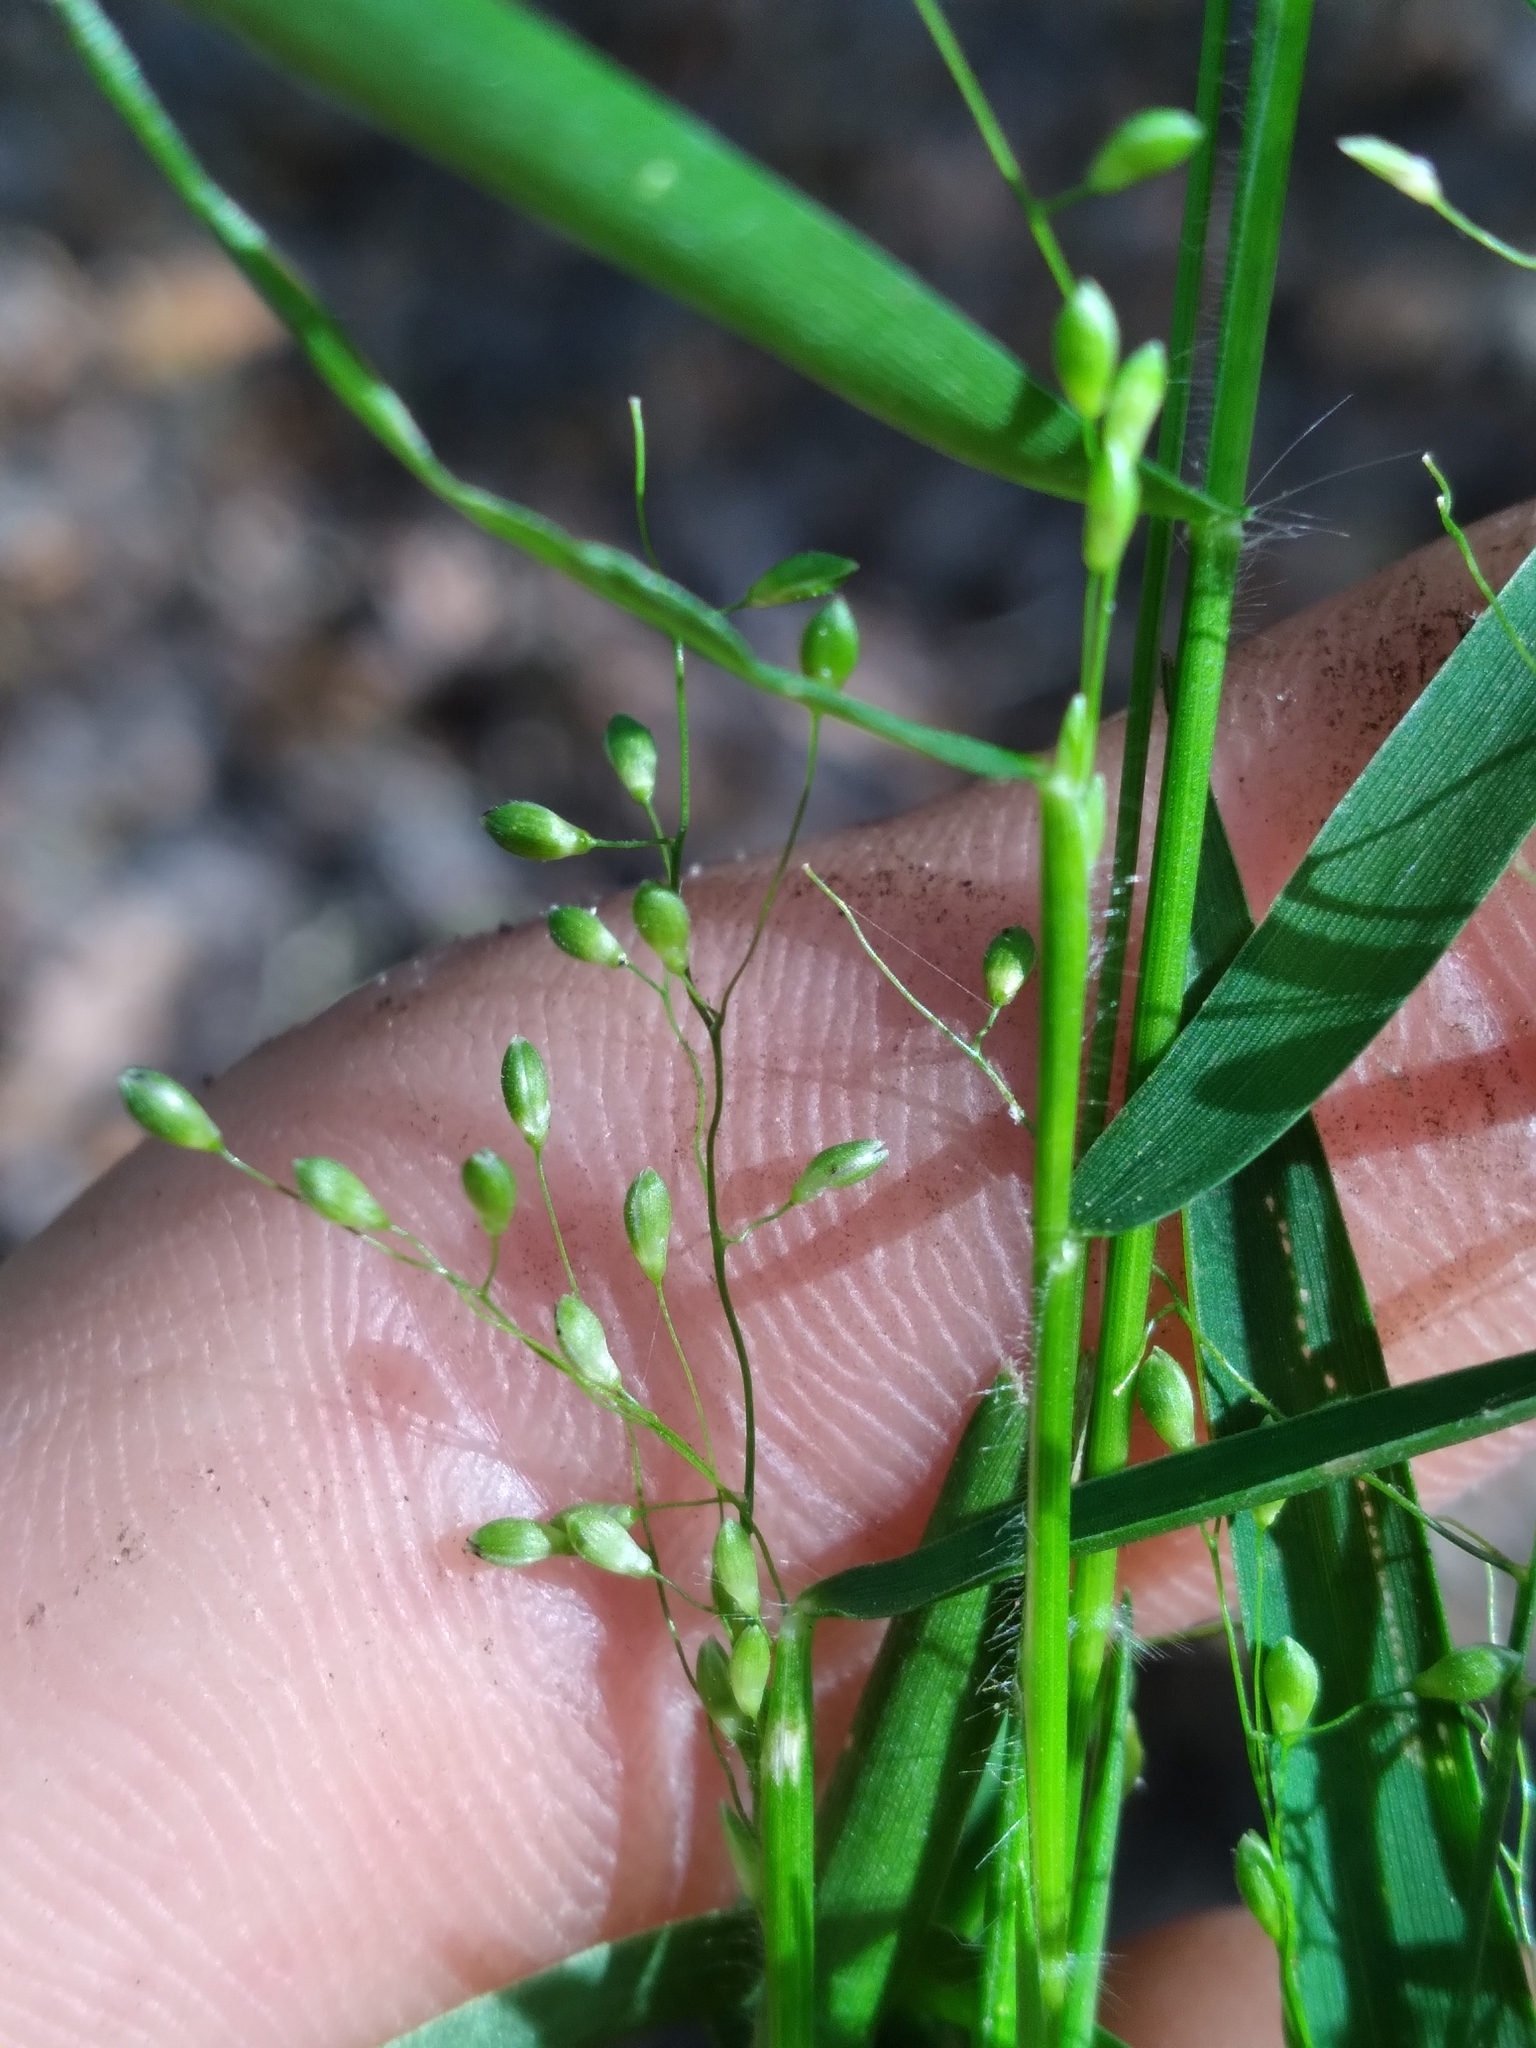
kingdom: Plantae
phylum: Tracheophyta
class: Liliopsida
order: Poales
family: Poaceae
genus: Dichanthelium
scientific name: Dichanthelium dichotomum
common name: Cypress panicgrass
